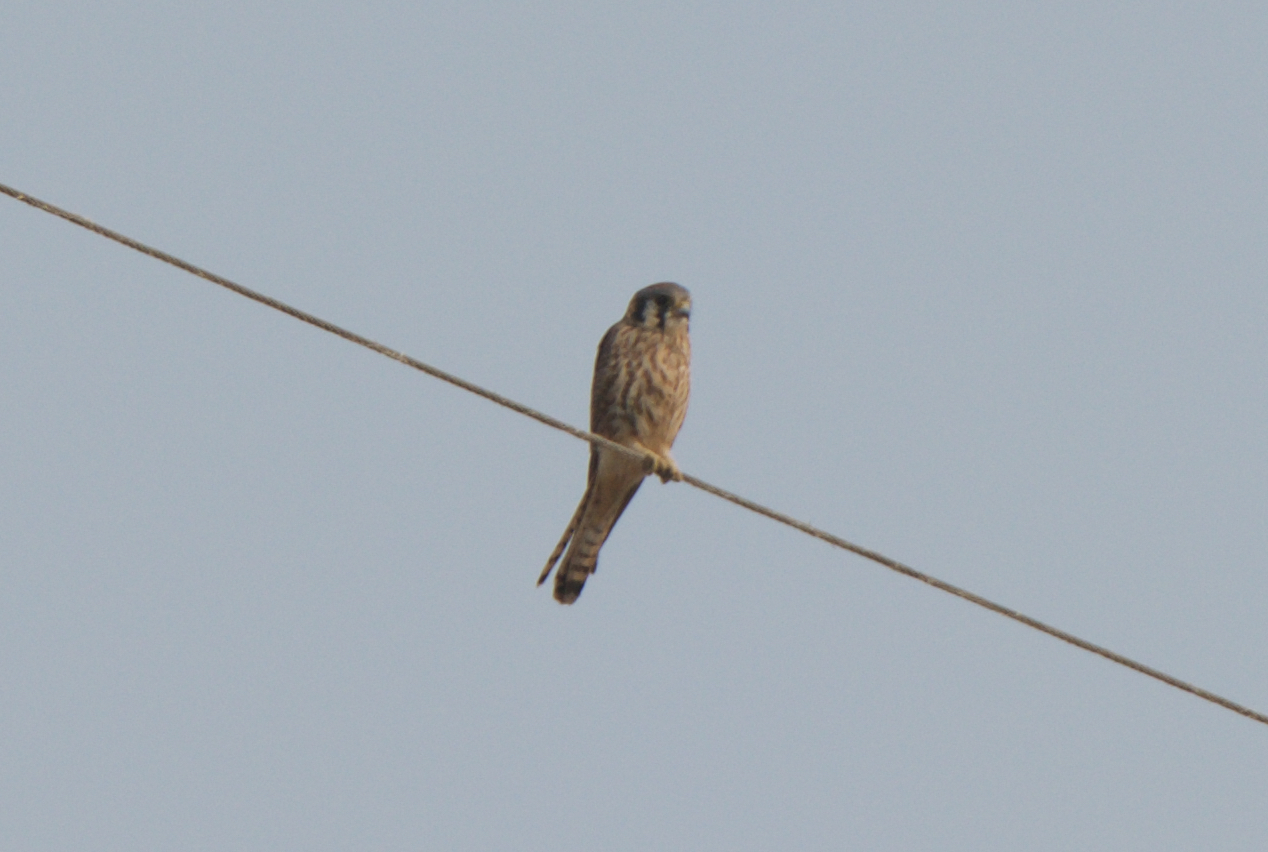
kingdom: Animalia
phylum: Chordata
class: Aves
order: Falconiformes
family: Falconidae
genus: Falco
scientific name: Falco sparverius
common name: American kestrel
